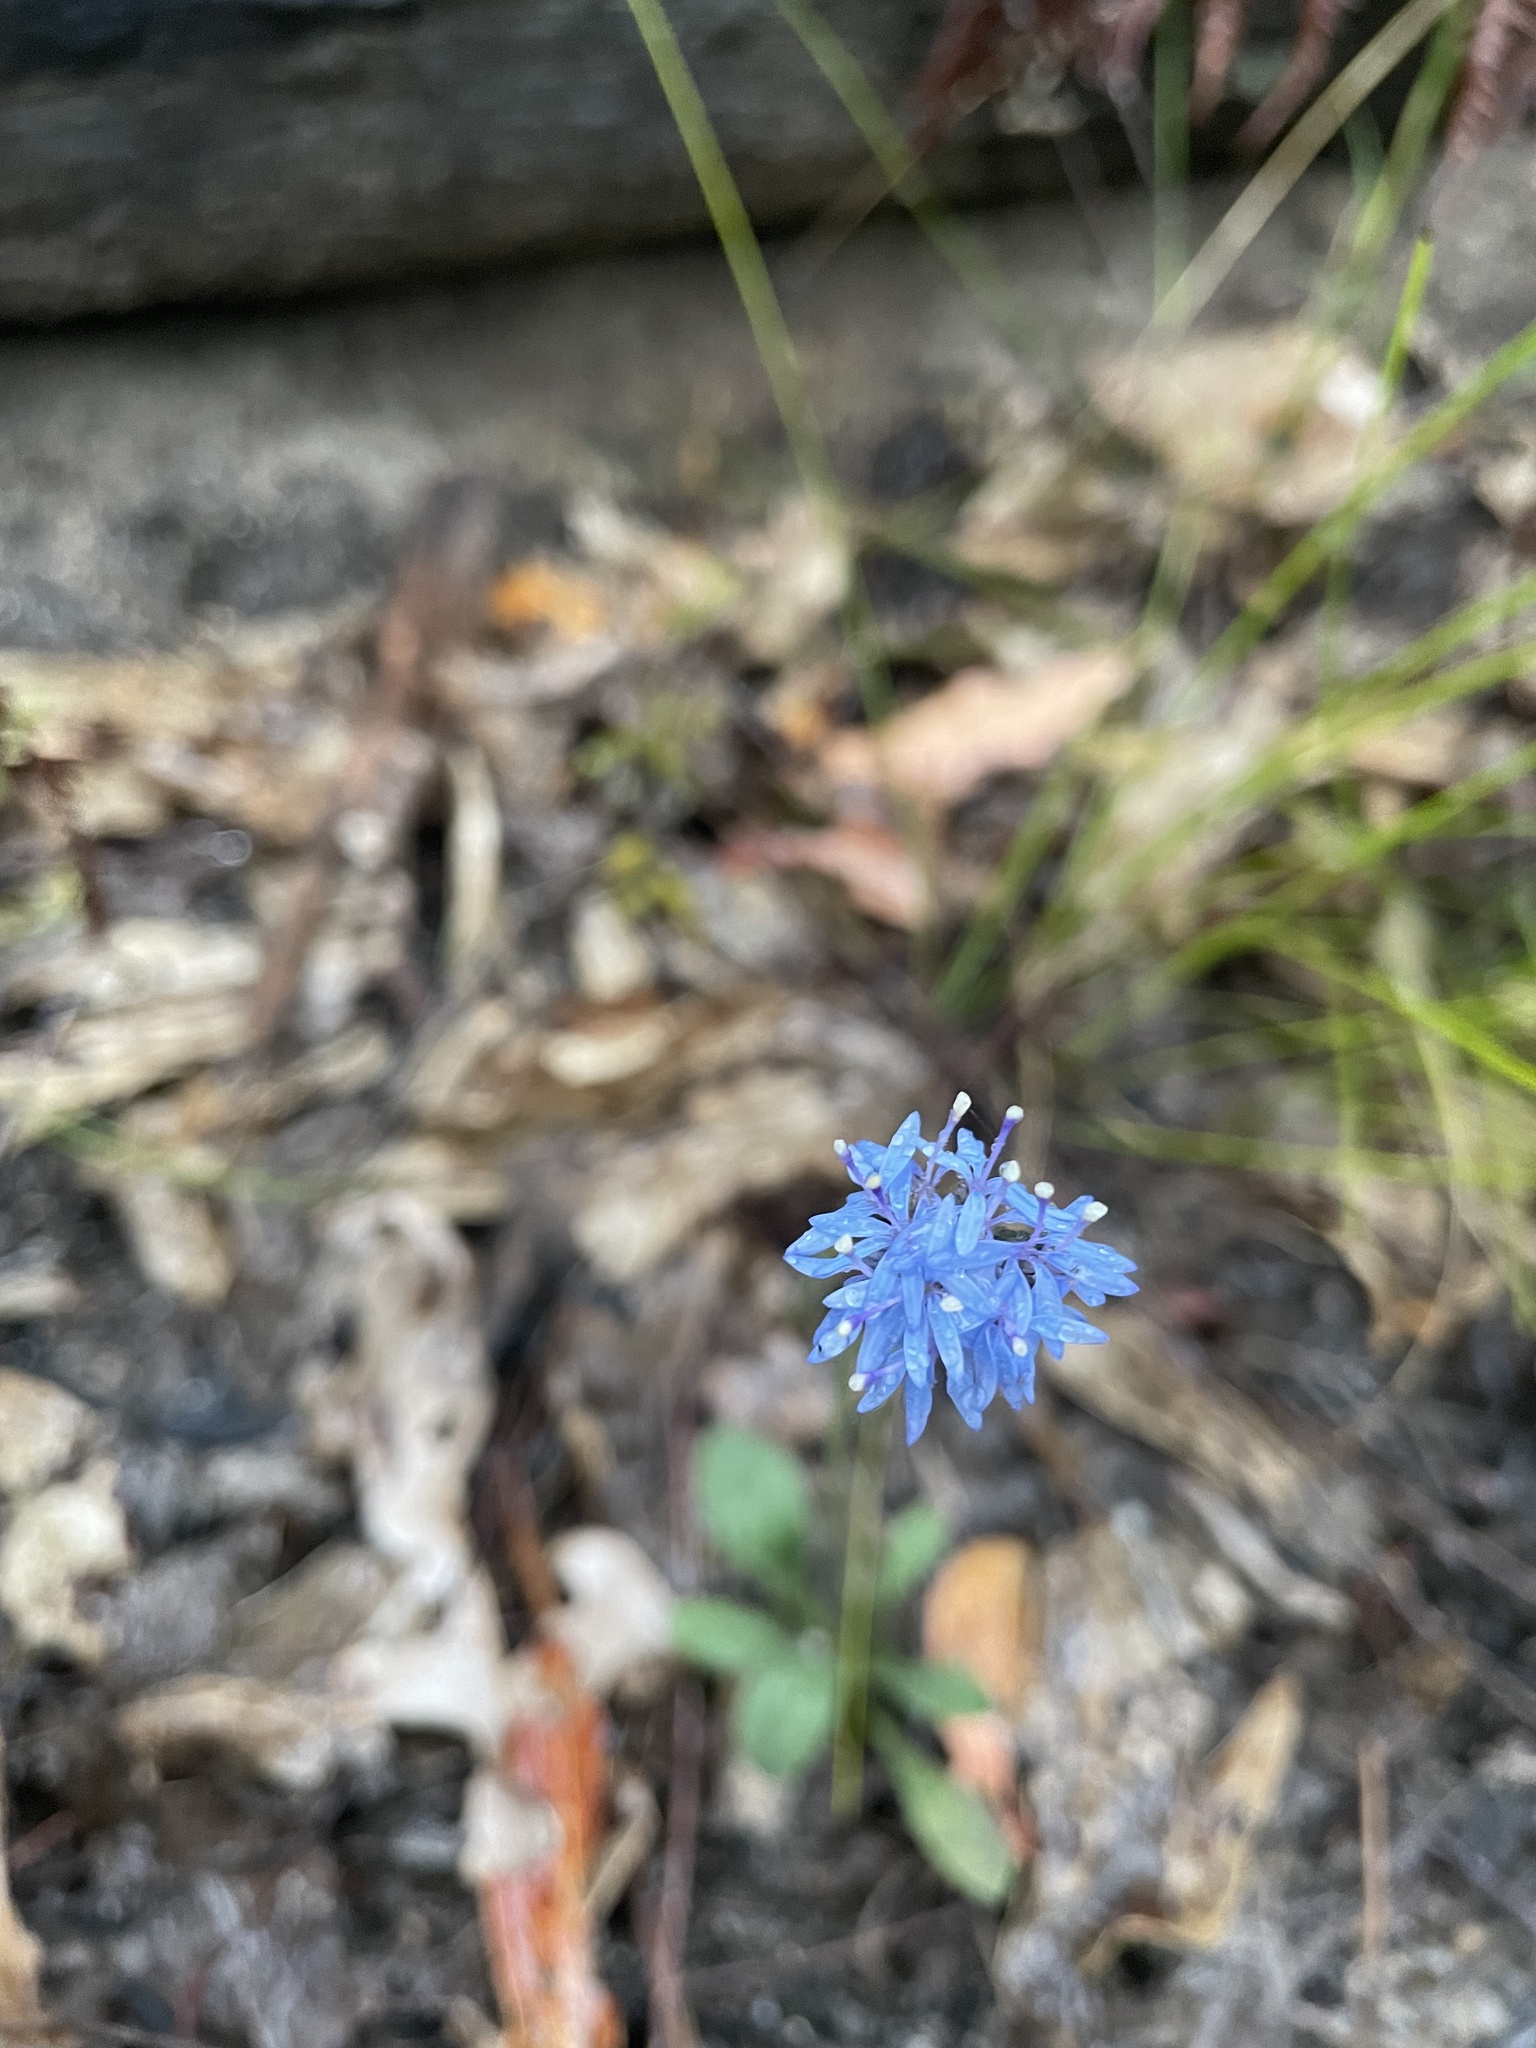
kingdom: Plantae
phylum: Tracheophyta
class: Magnoliopsida
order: Asterales
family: Goodeniaceae
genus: Brunonia
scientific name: Brunonia australis
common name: Blue pincushion
